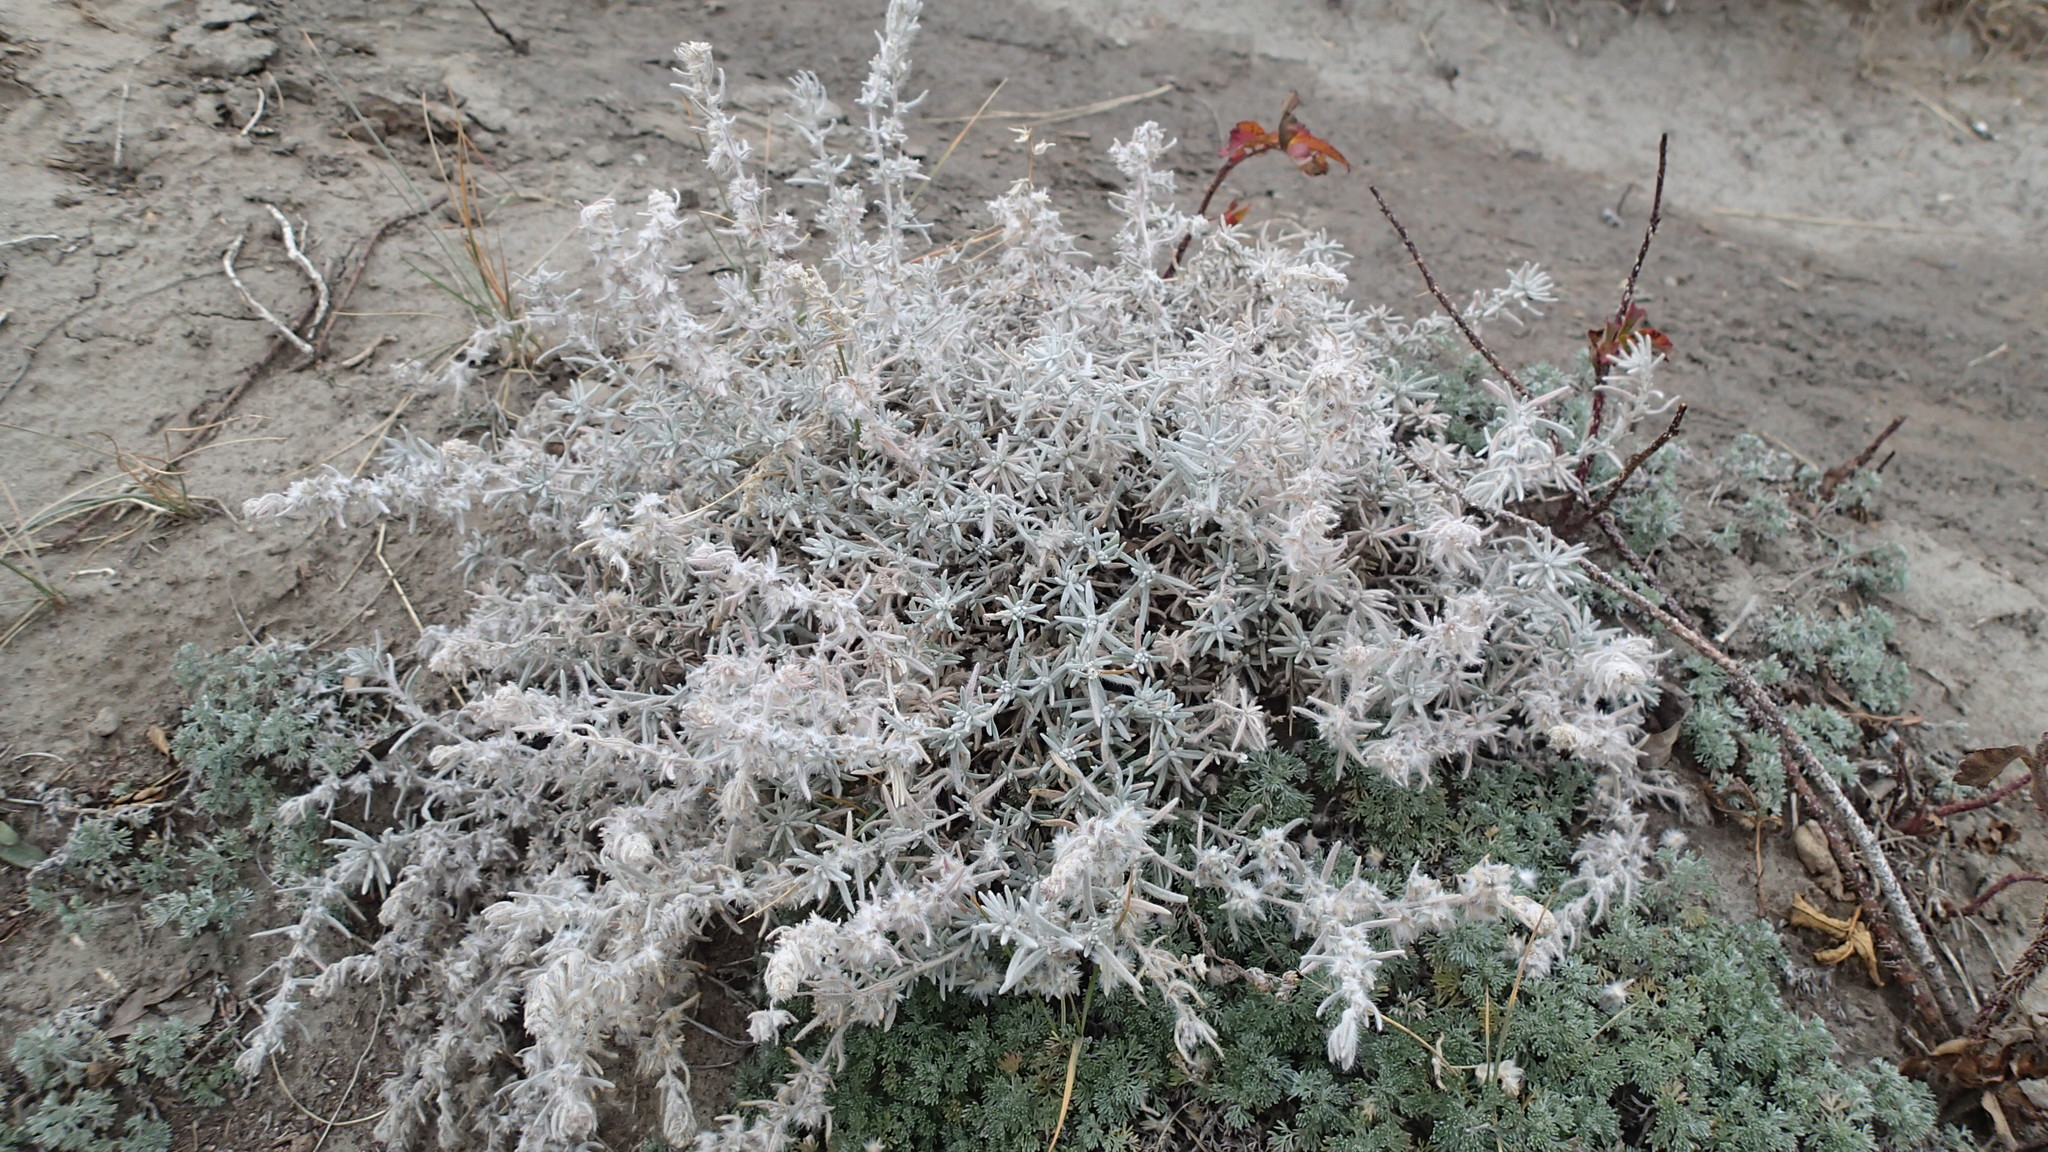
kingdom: Plantae
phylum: Tracheophyta
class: Magnoliopsida
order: Caryophyllales
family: Amaranthaceae
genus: Krascheninnikovia
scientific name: Krascheninnikovia lanata
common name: Winterfat
